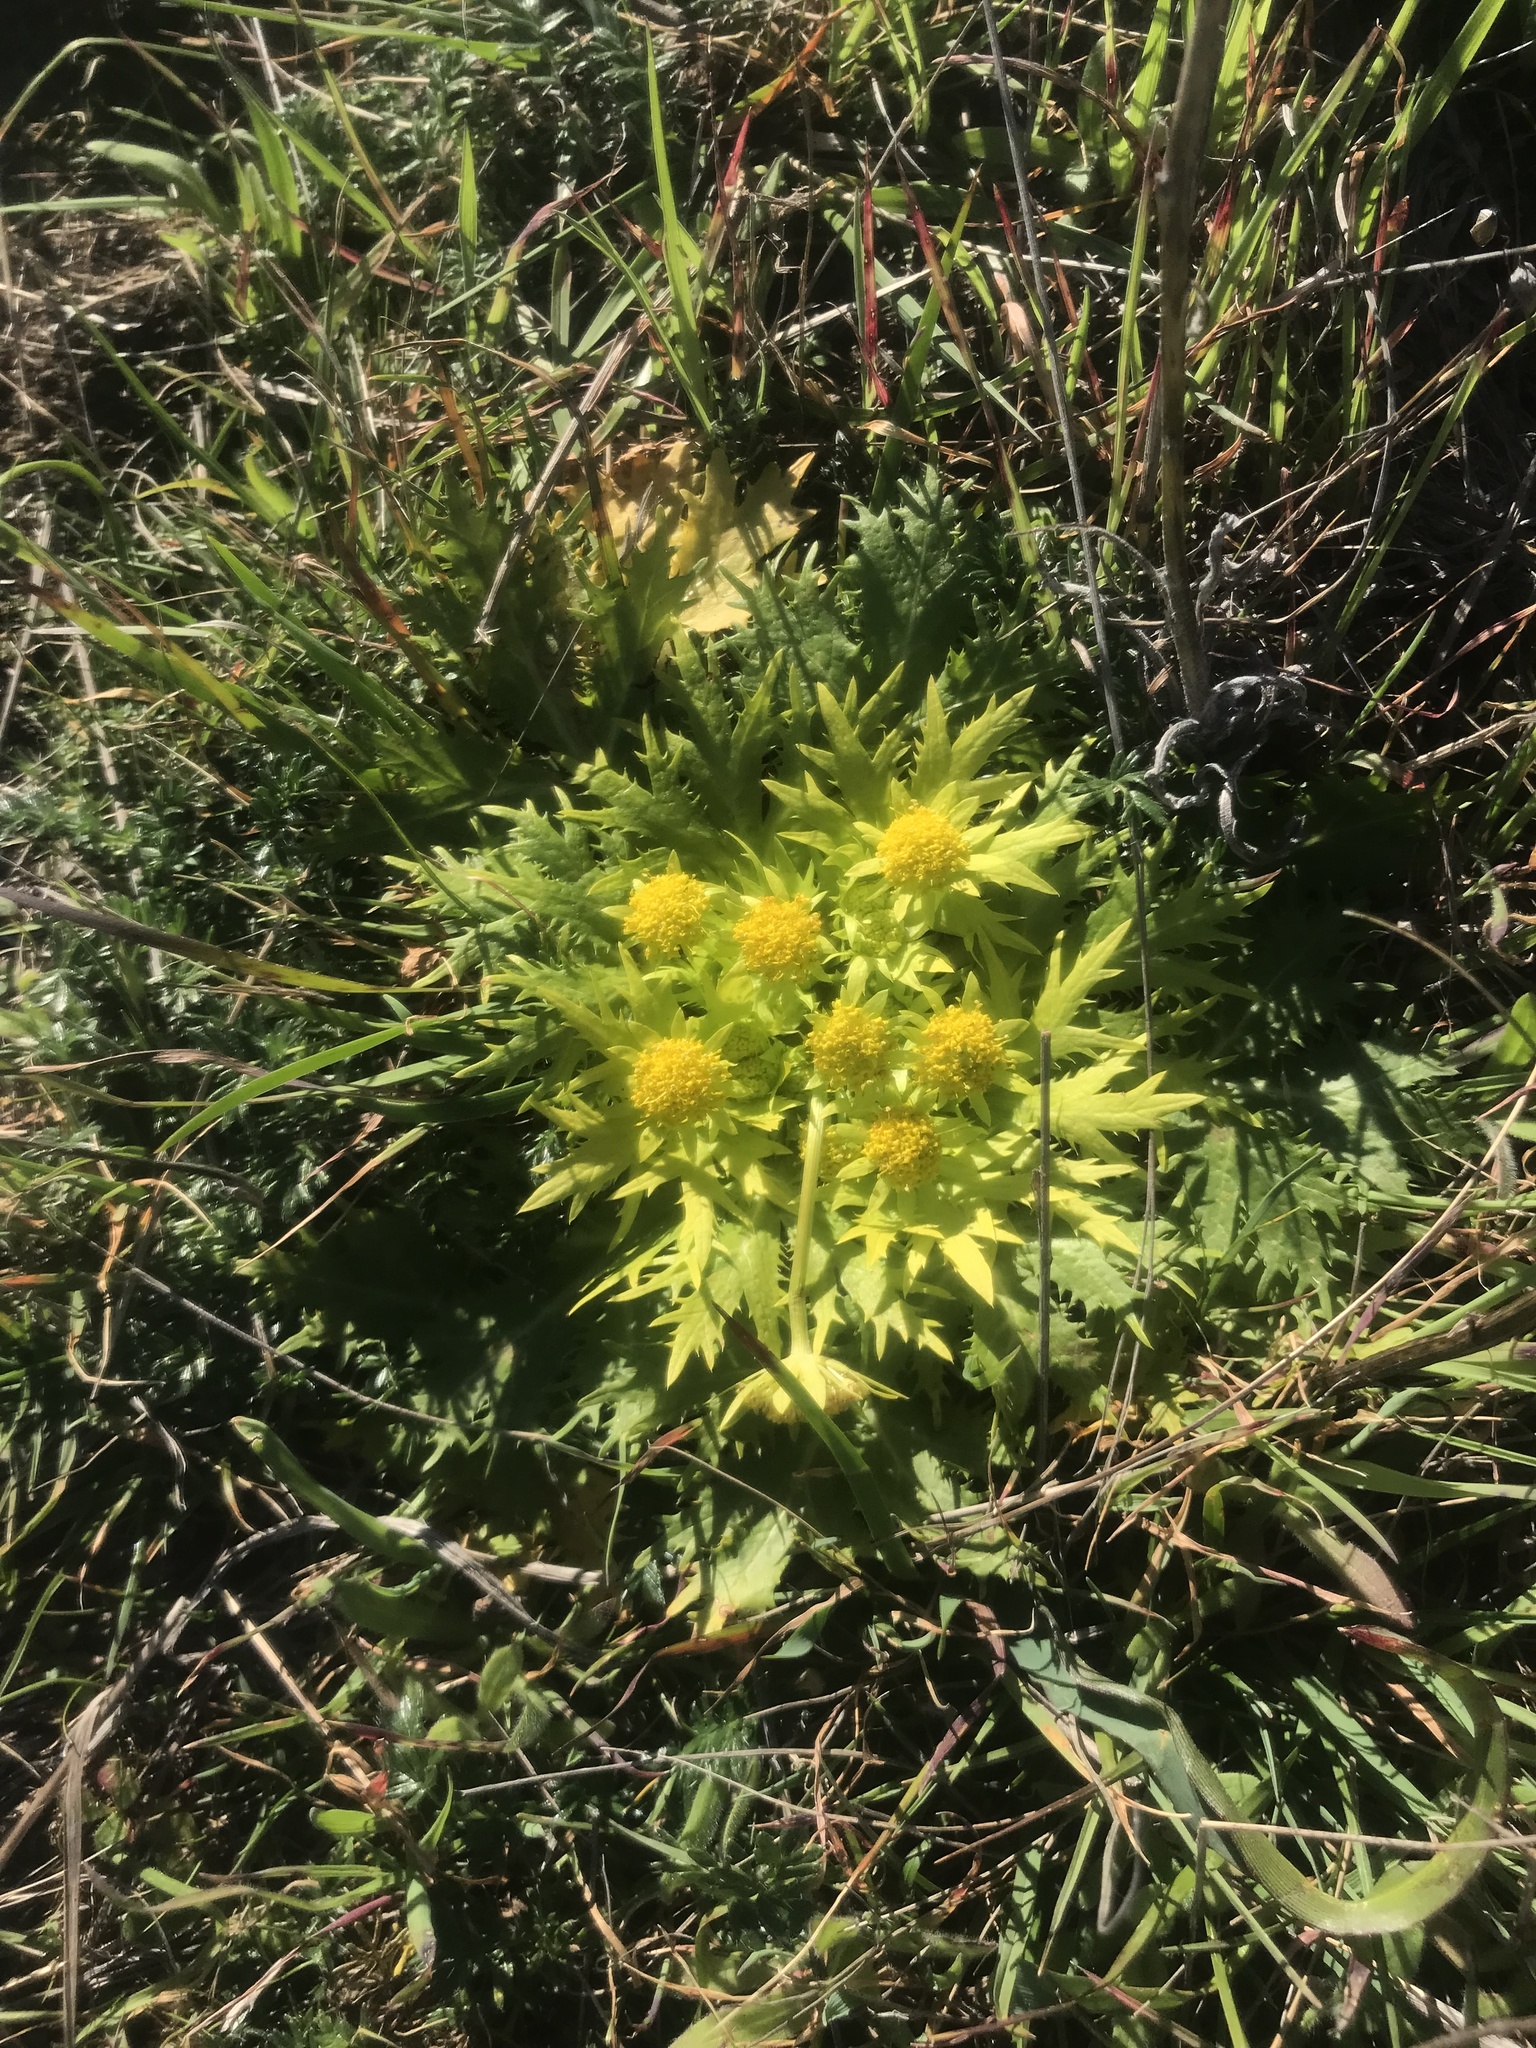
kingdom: Plantae
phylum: Tracheophyta
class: Magnoliopsida
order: Apiales
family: Apiaceae
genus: Sanicula
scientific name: Sanicula arctopoides
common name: Footsteps-of-spring
